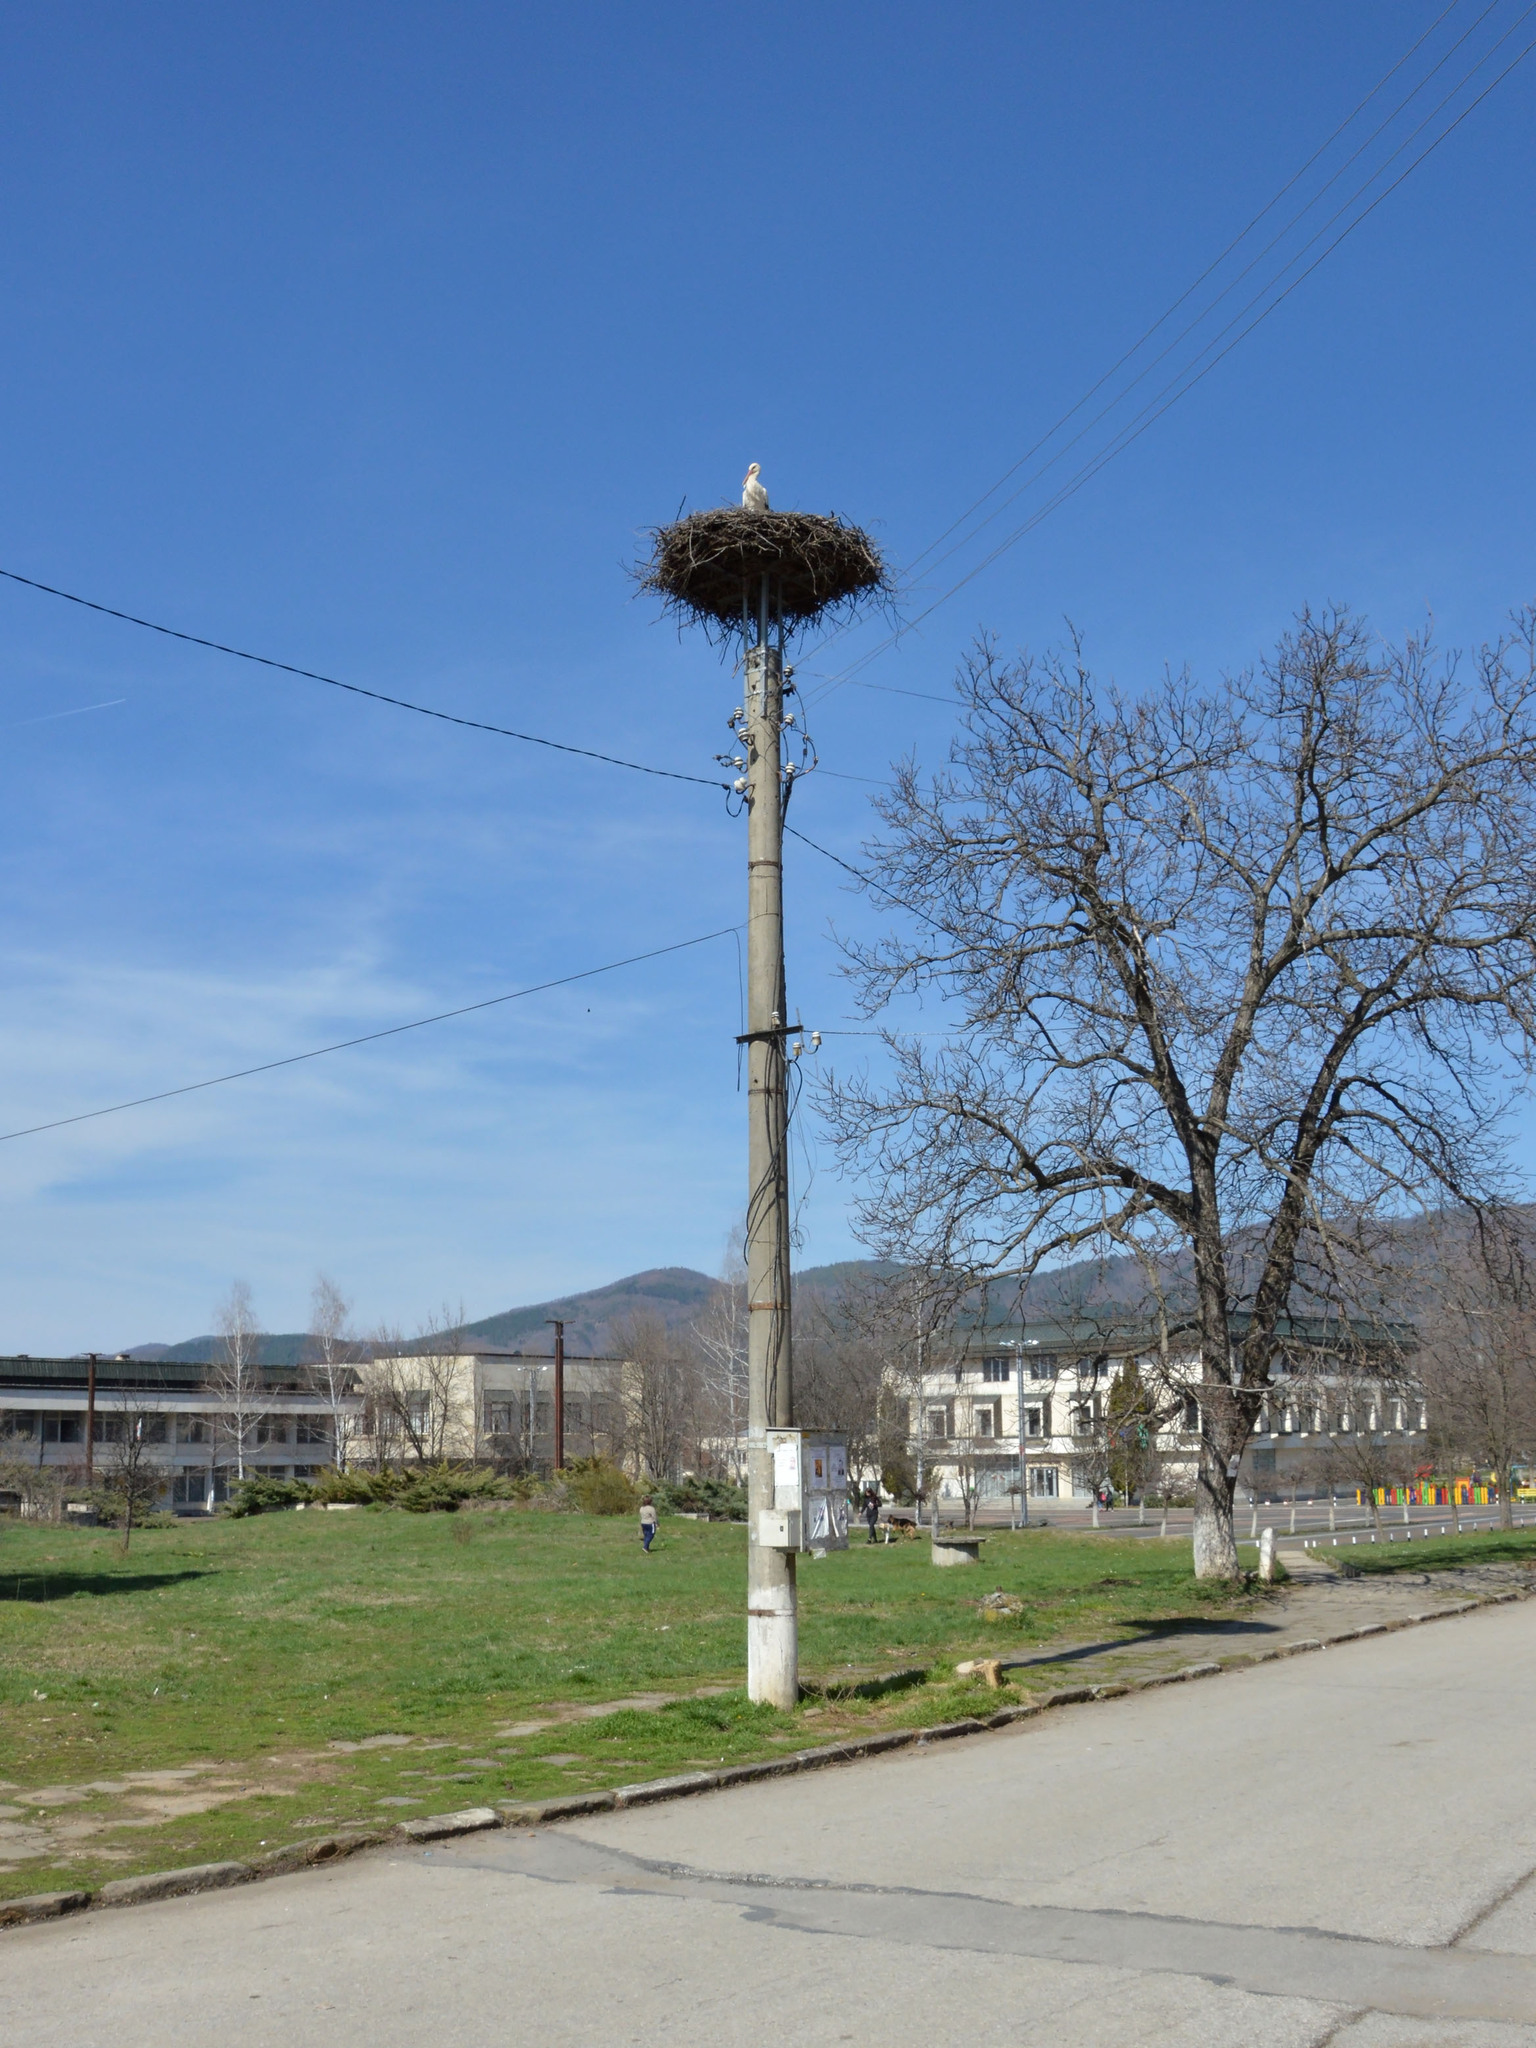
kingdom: Animalia
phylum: Chordata
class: Aves
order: Ciconiiformes
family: Ciconiidae
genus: Ciconia
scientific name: Ciconia ciconia
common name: White stork
